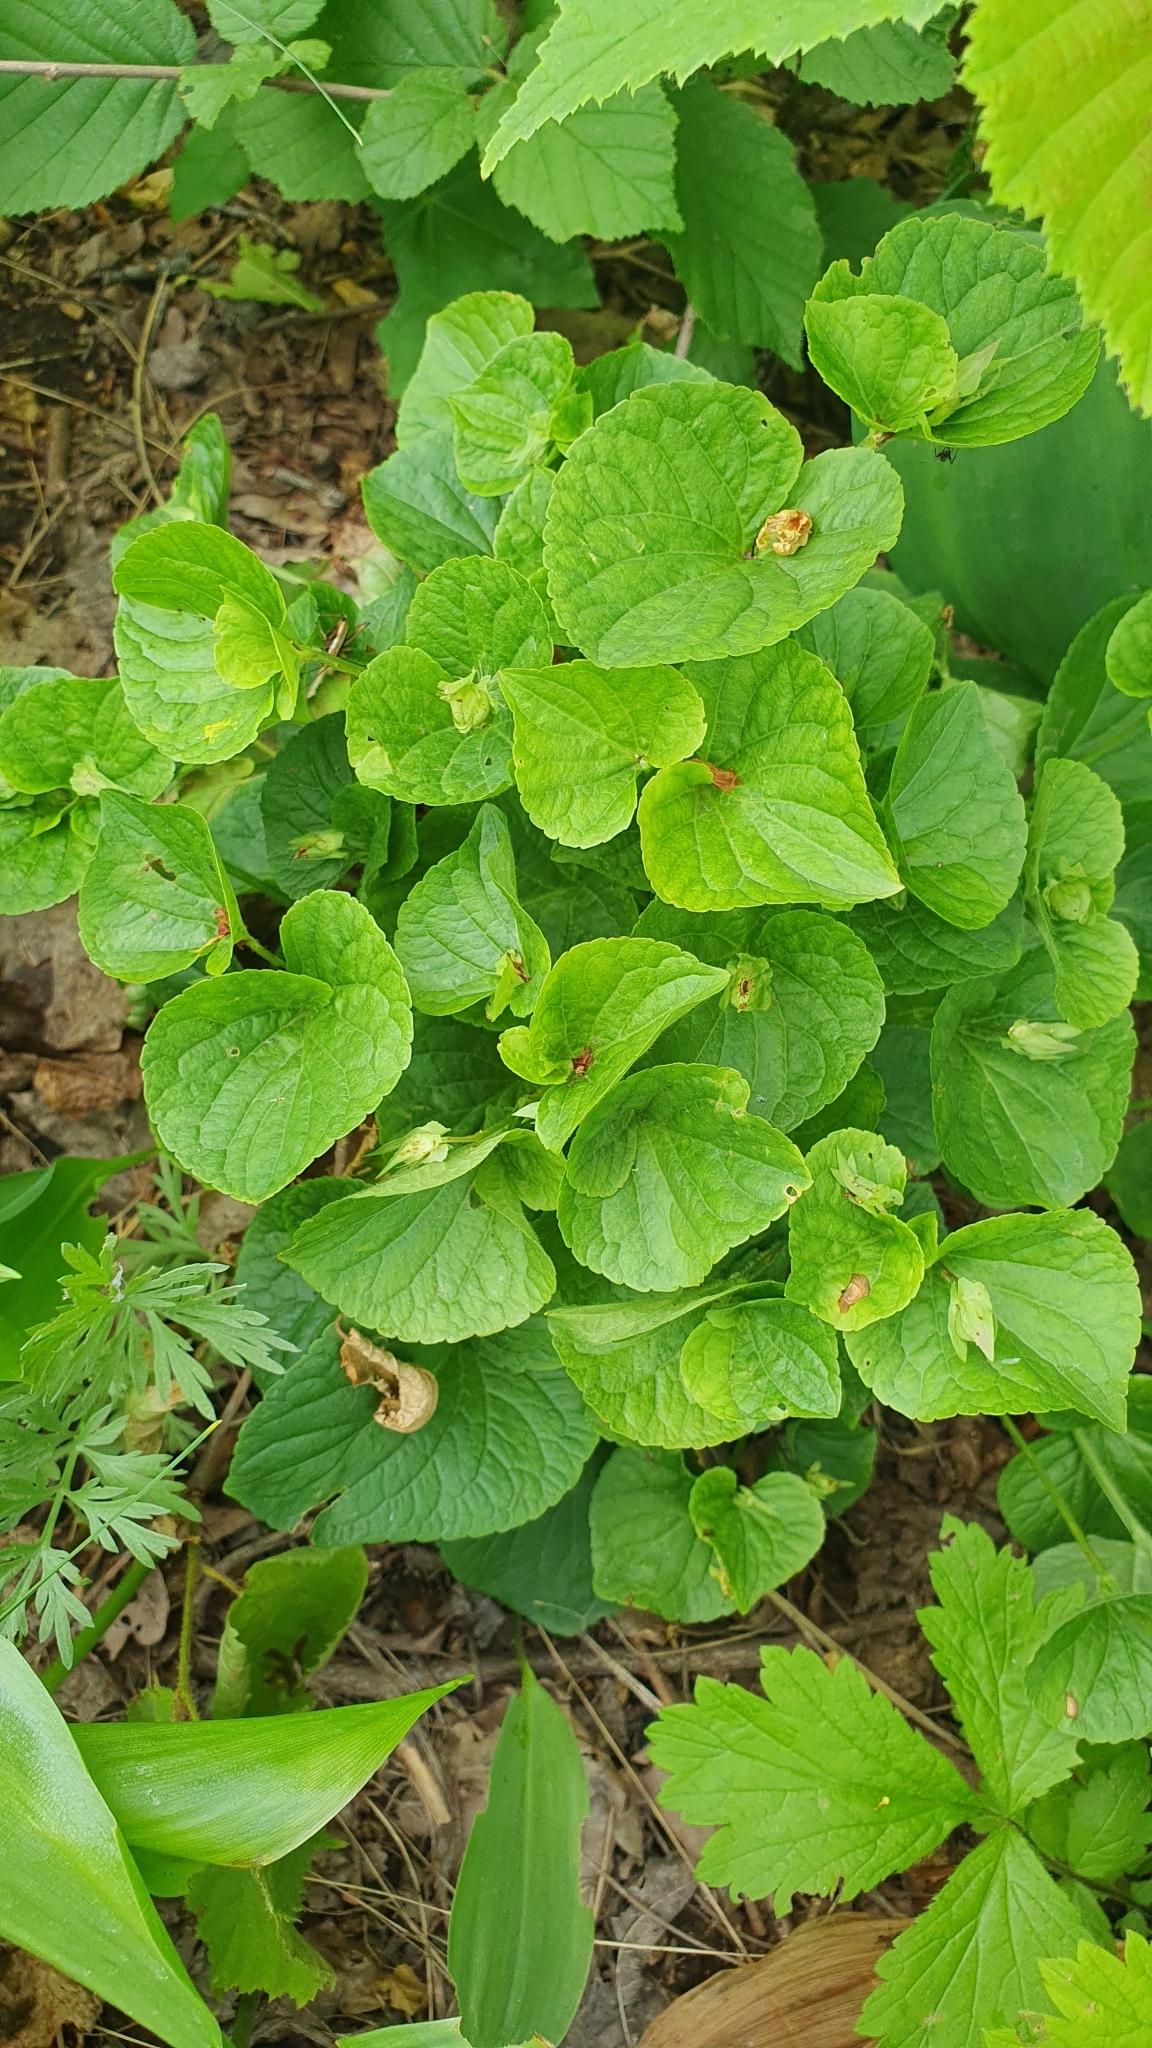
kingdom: Plantae
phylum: Tracheophyta
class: Magnoliopsida
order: Malpighiales
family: Violaceae
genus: Viola
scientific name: Viola mirabilis
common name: Wonder violet
